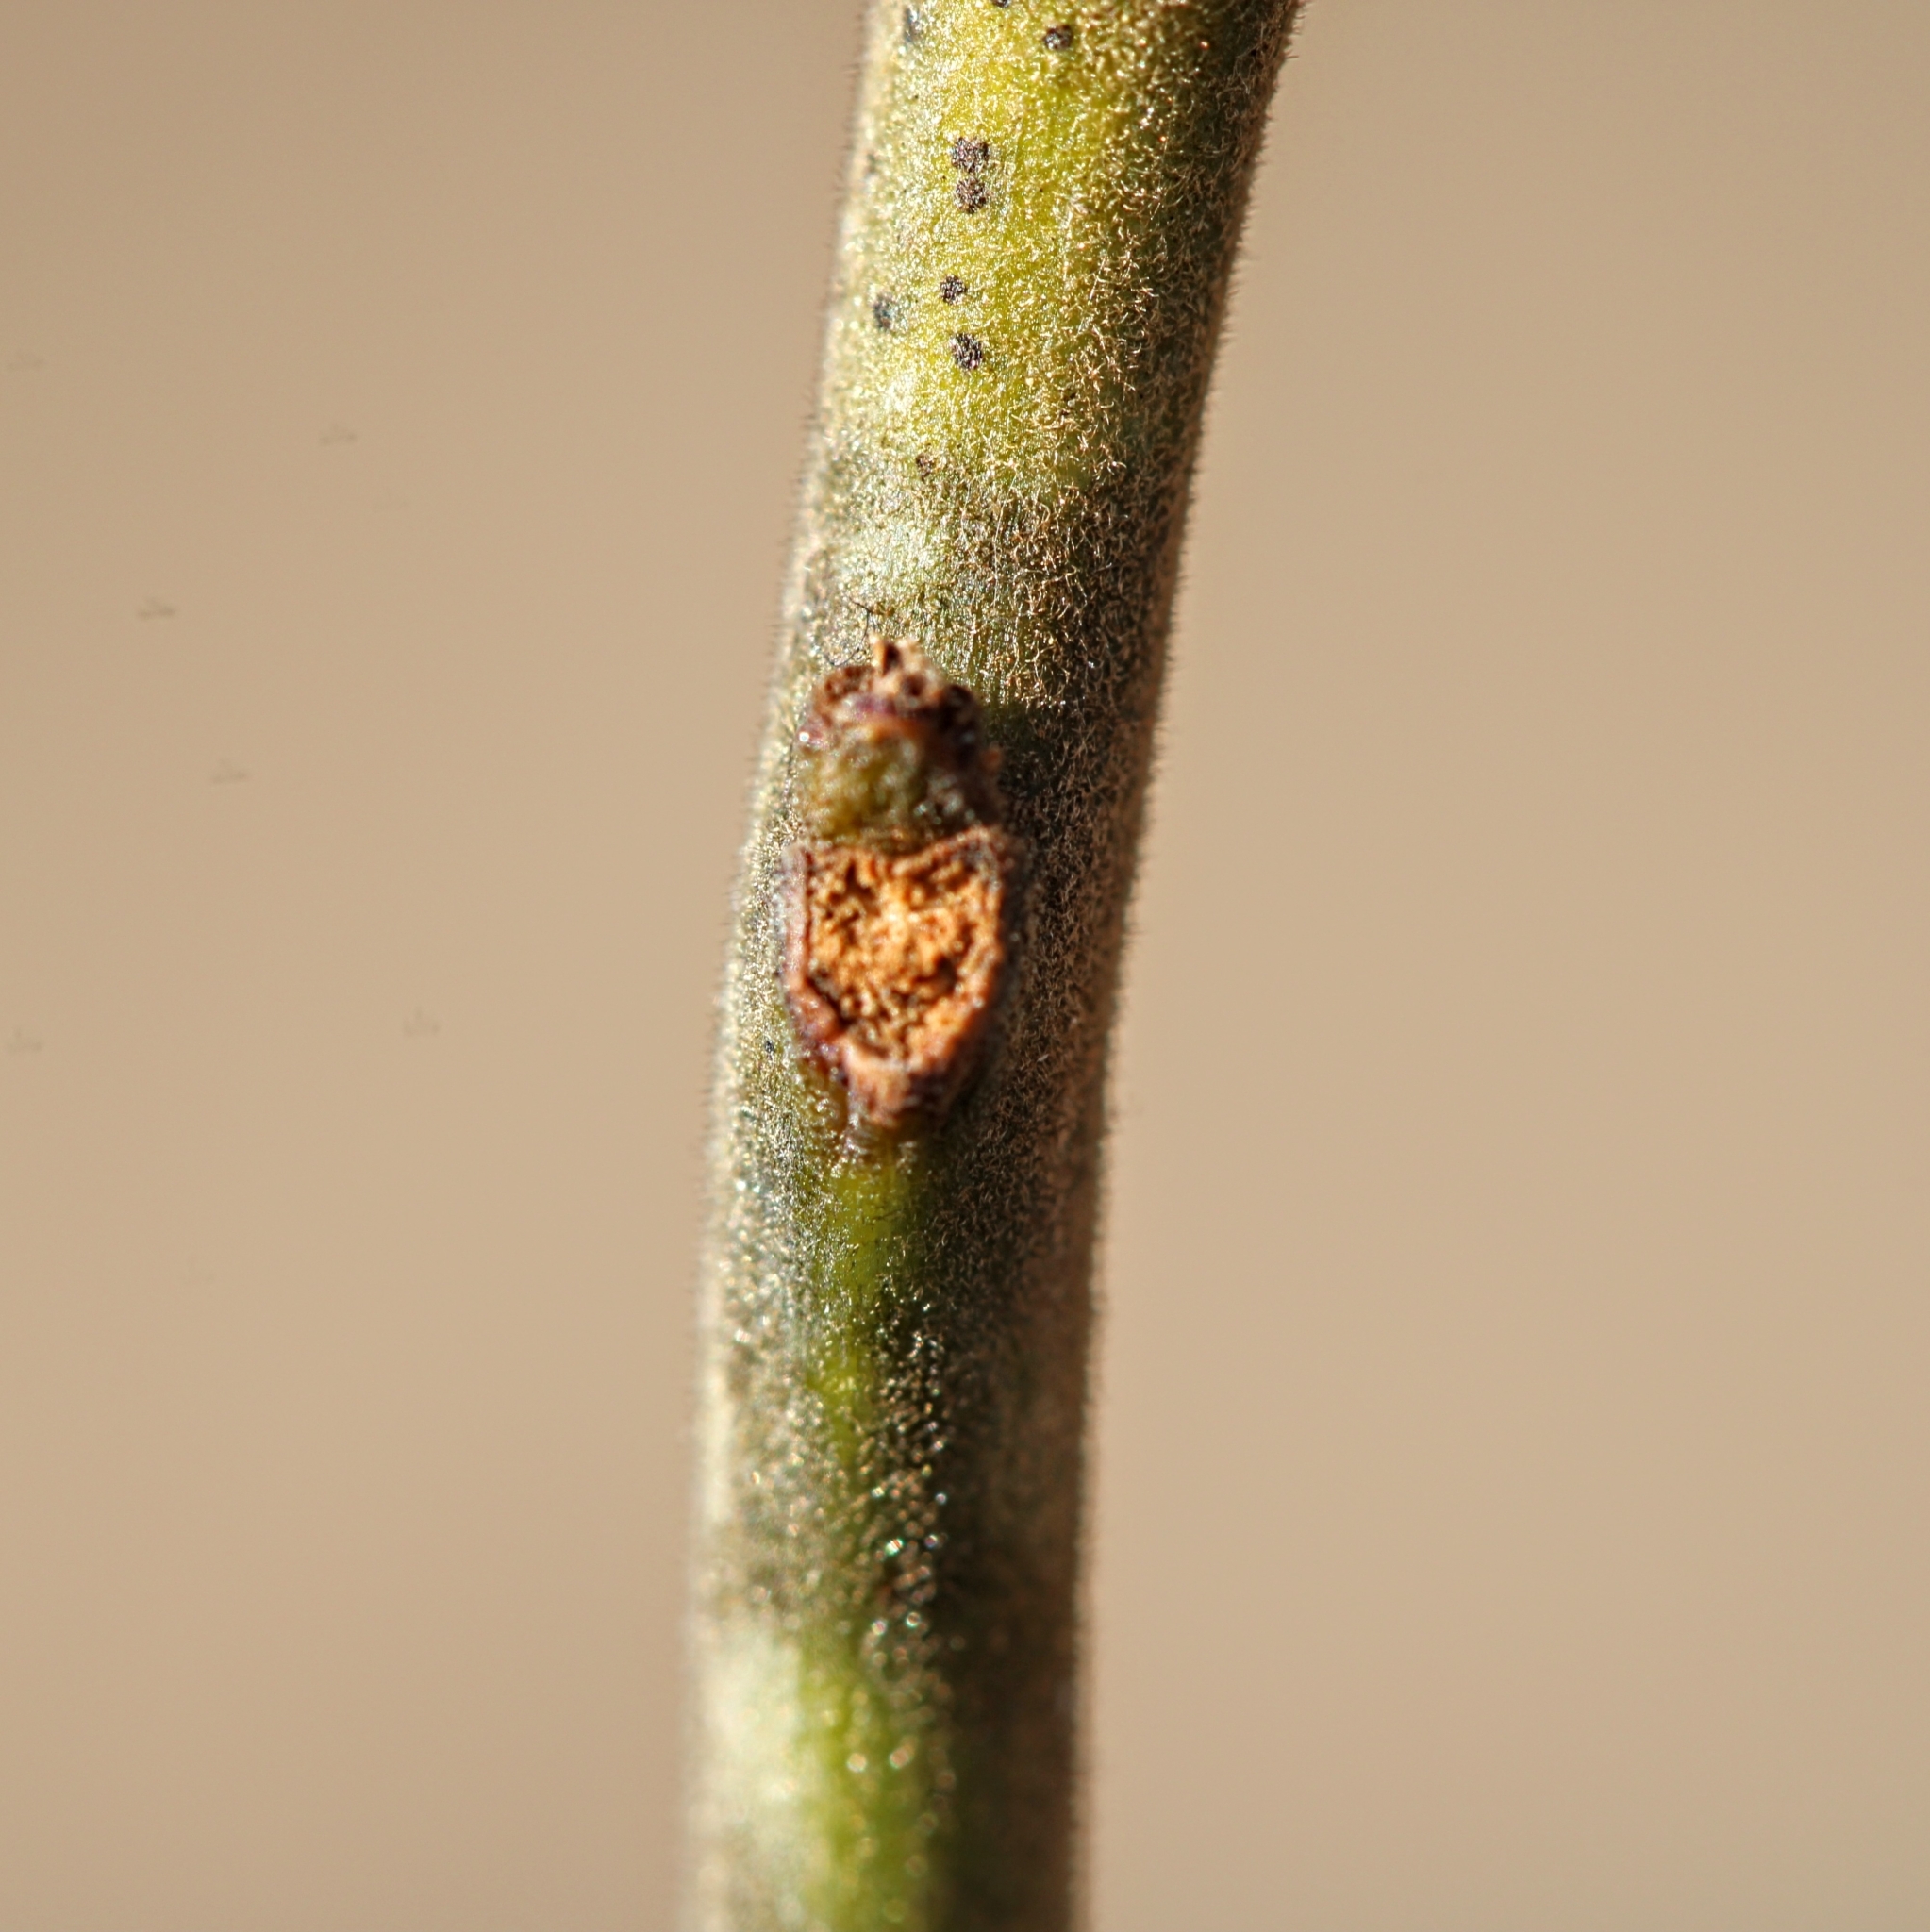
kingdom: Plantae
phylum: Tracheophyta
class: Magnoliopsida
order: Laurales
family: Lauraceae
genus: Sassafras
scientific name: Sassafras albidum
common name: Sassafras
